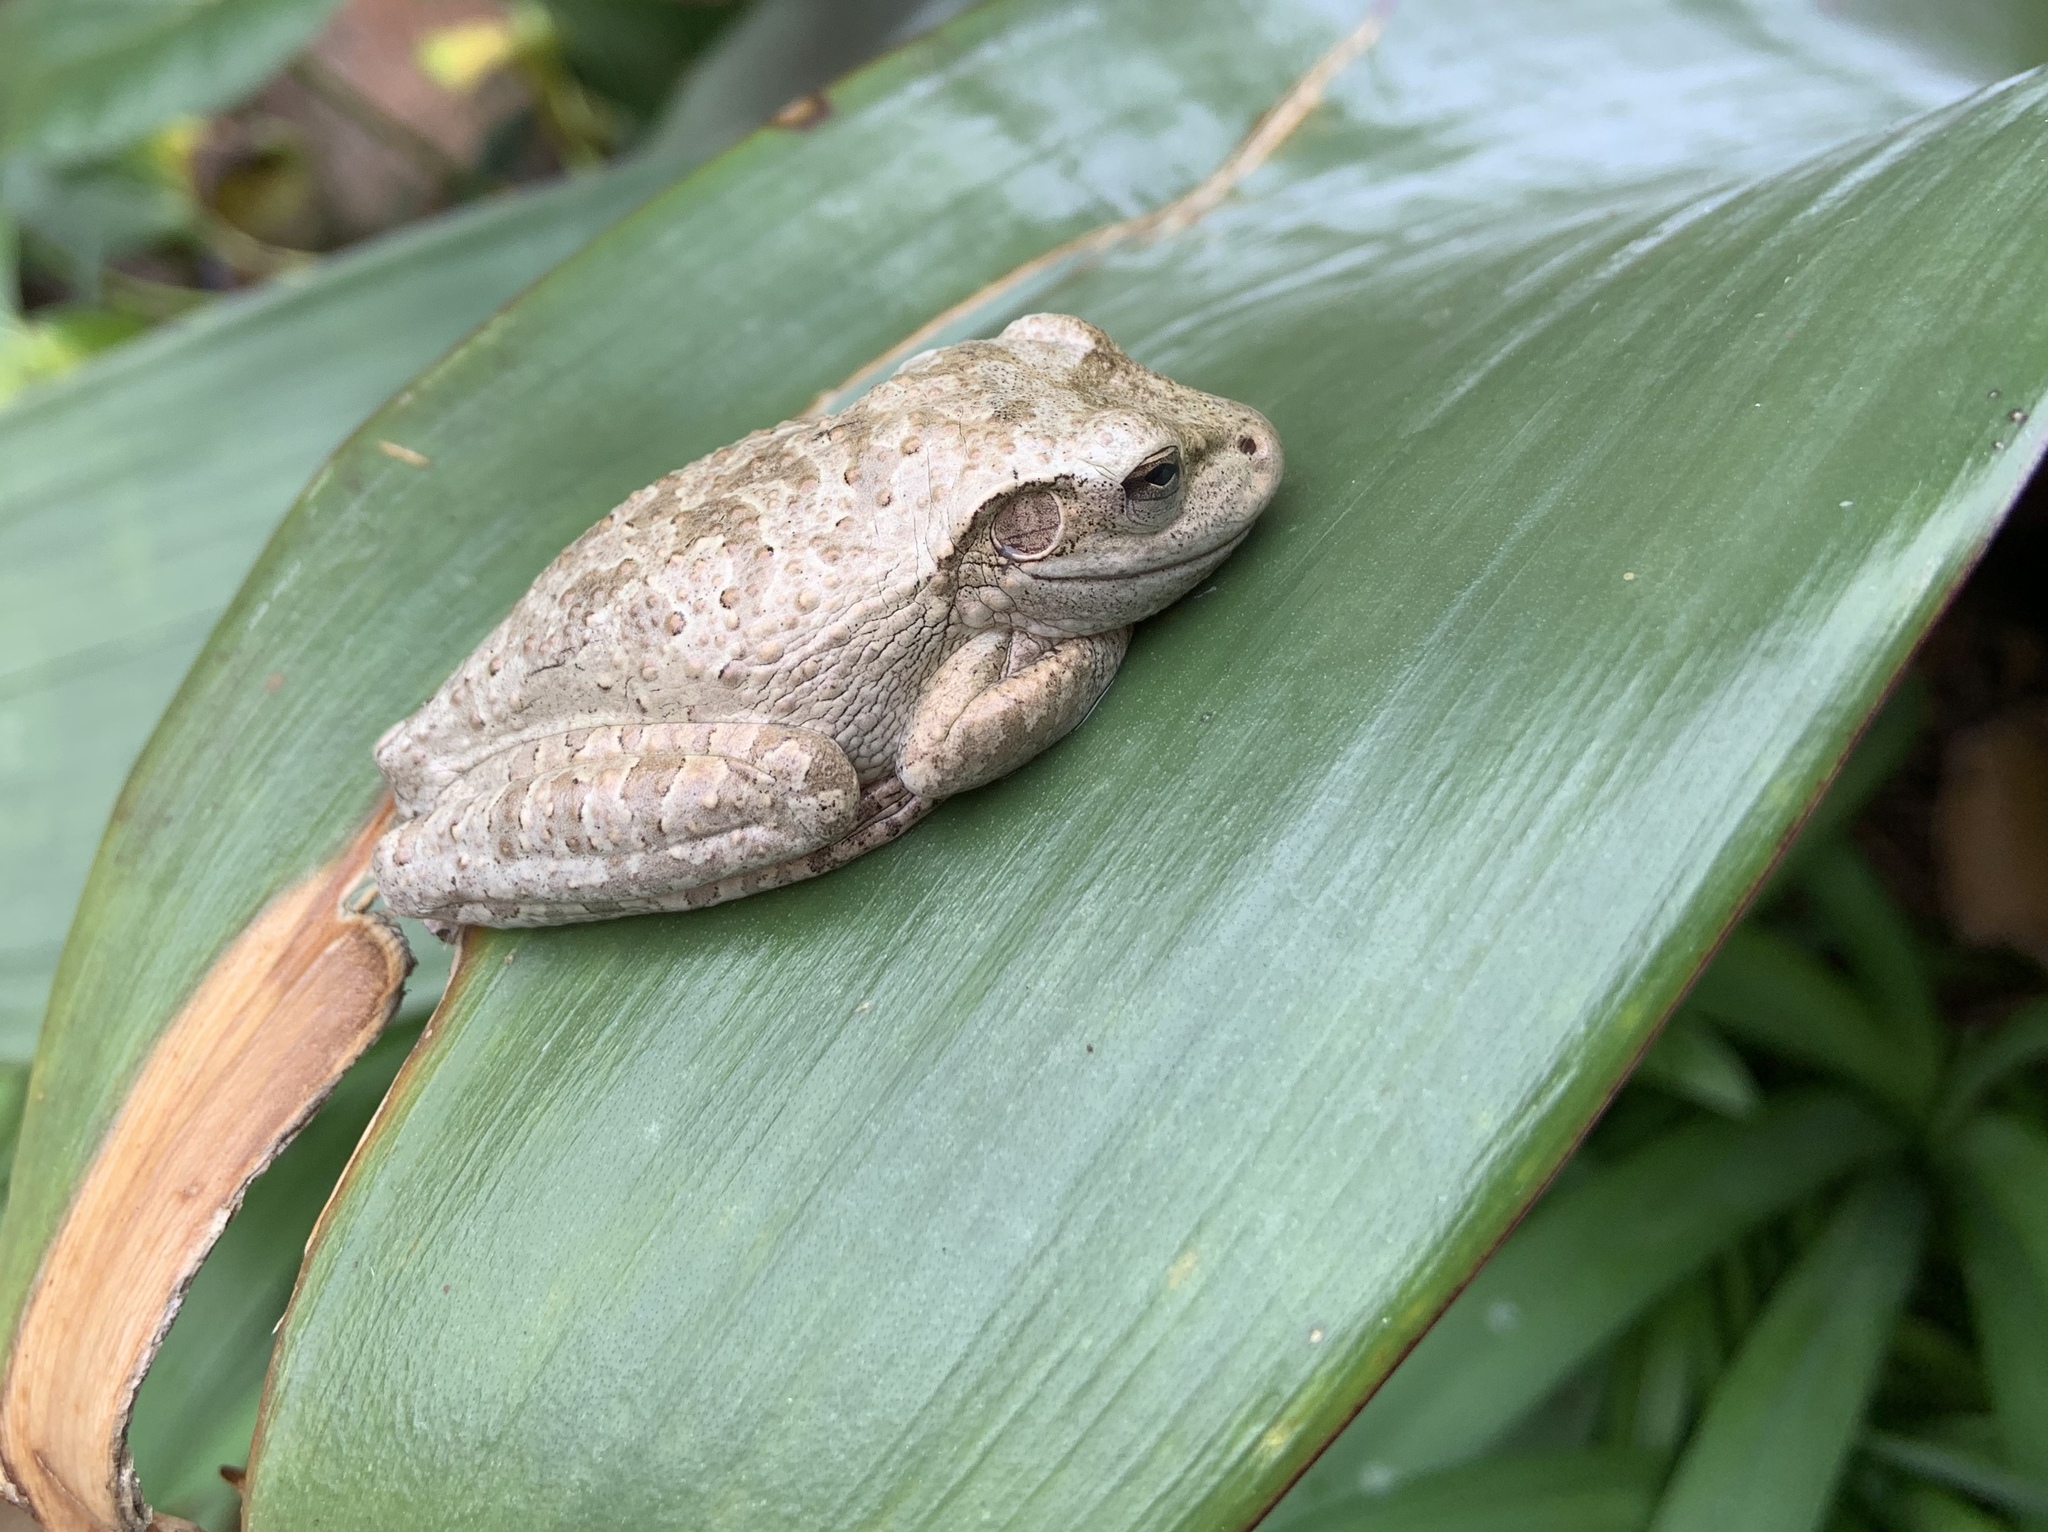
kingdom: Animalia
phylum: Chordata
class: Amphibia
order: Anura
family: Hylidae
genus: Osteopilus
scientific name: Osteopilus septentrionalis
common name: Cuban treefrog
